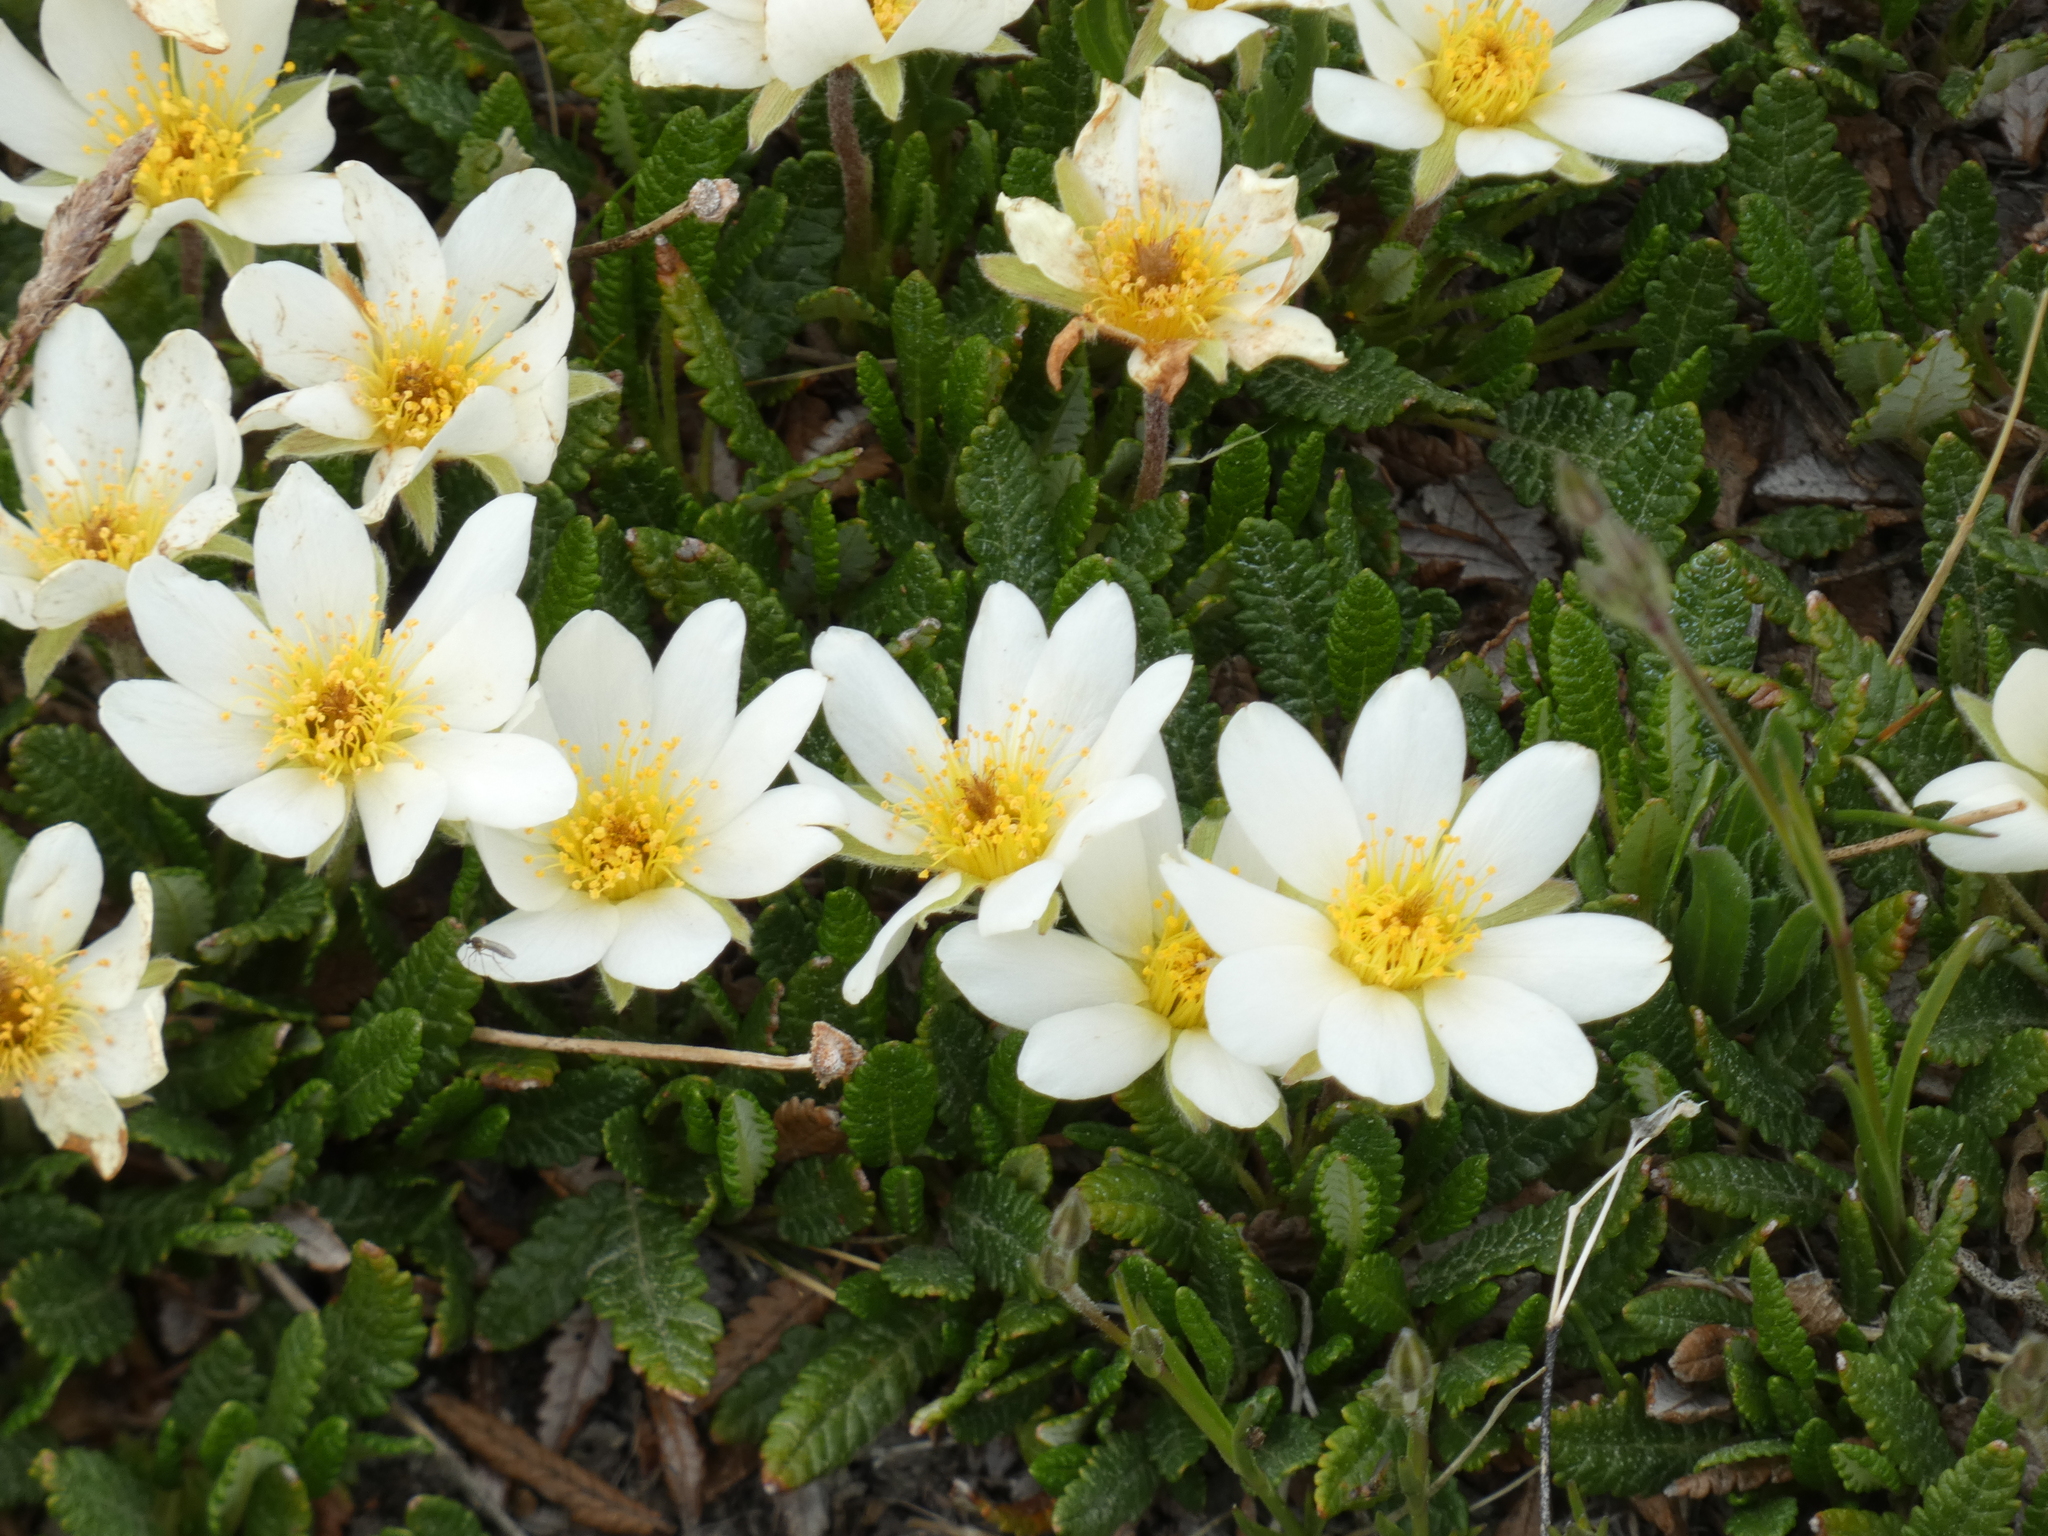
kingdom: Plantae
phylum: Tracheophyta
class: Magnoliopsida
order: Rosales
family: Rosaceae
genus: Dryas
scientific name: Dryas octopetala
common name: Eight-petal mountain-avens
